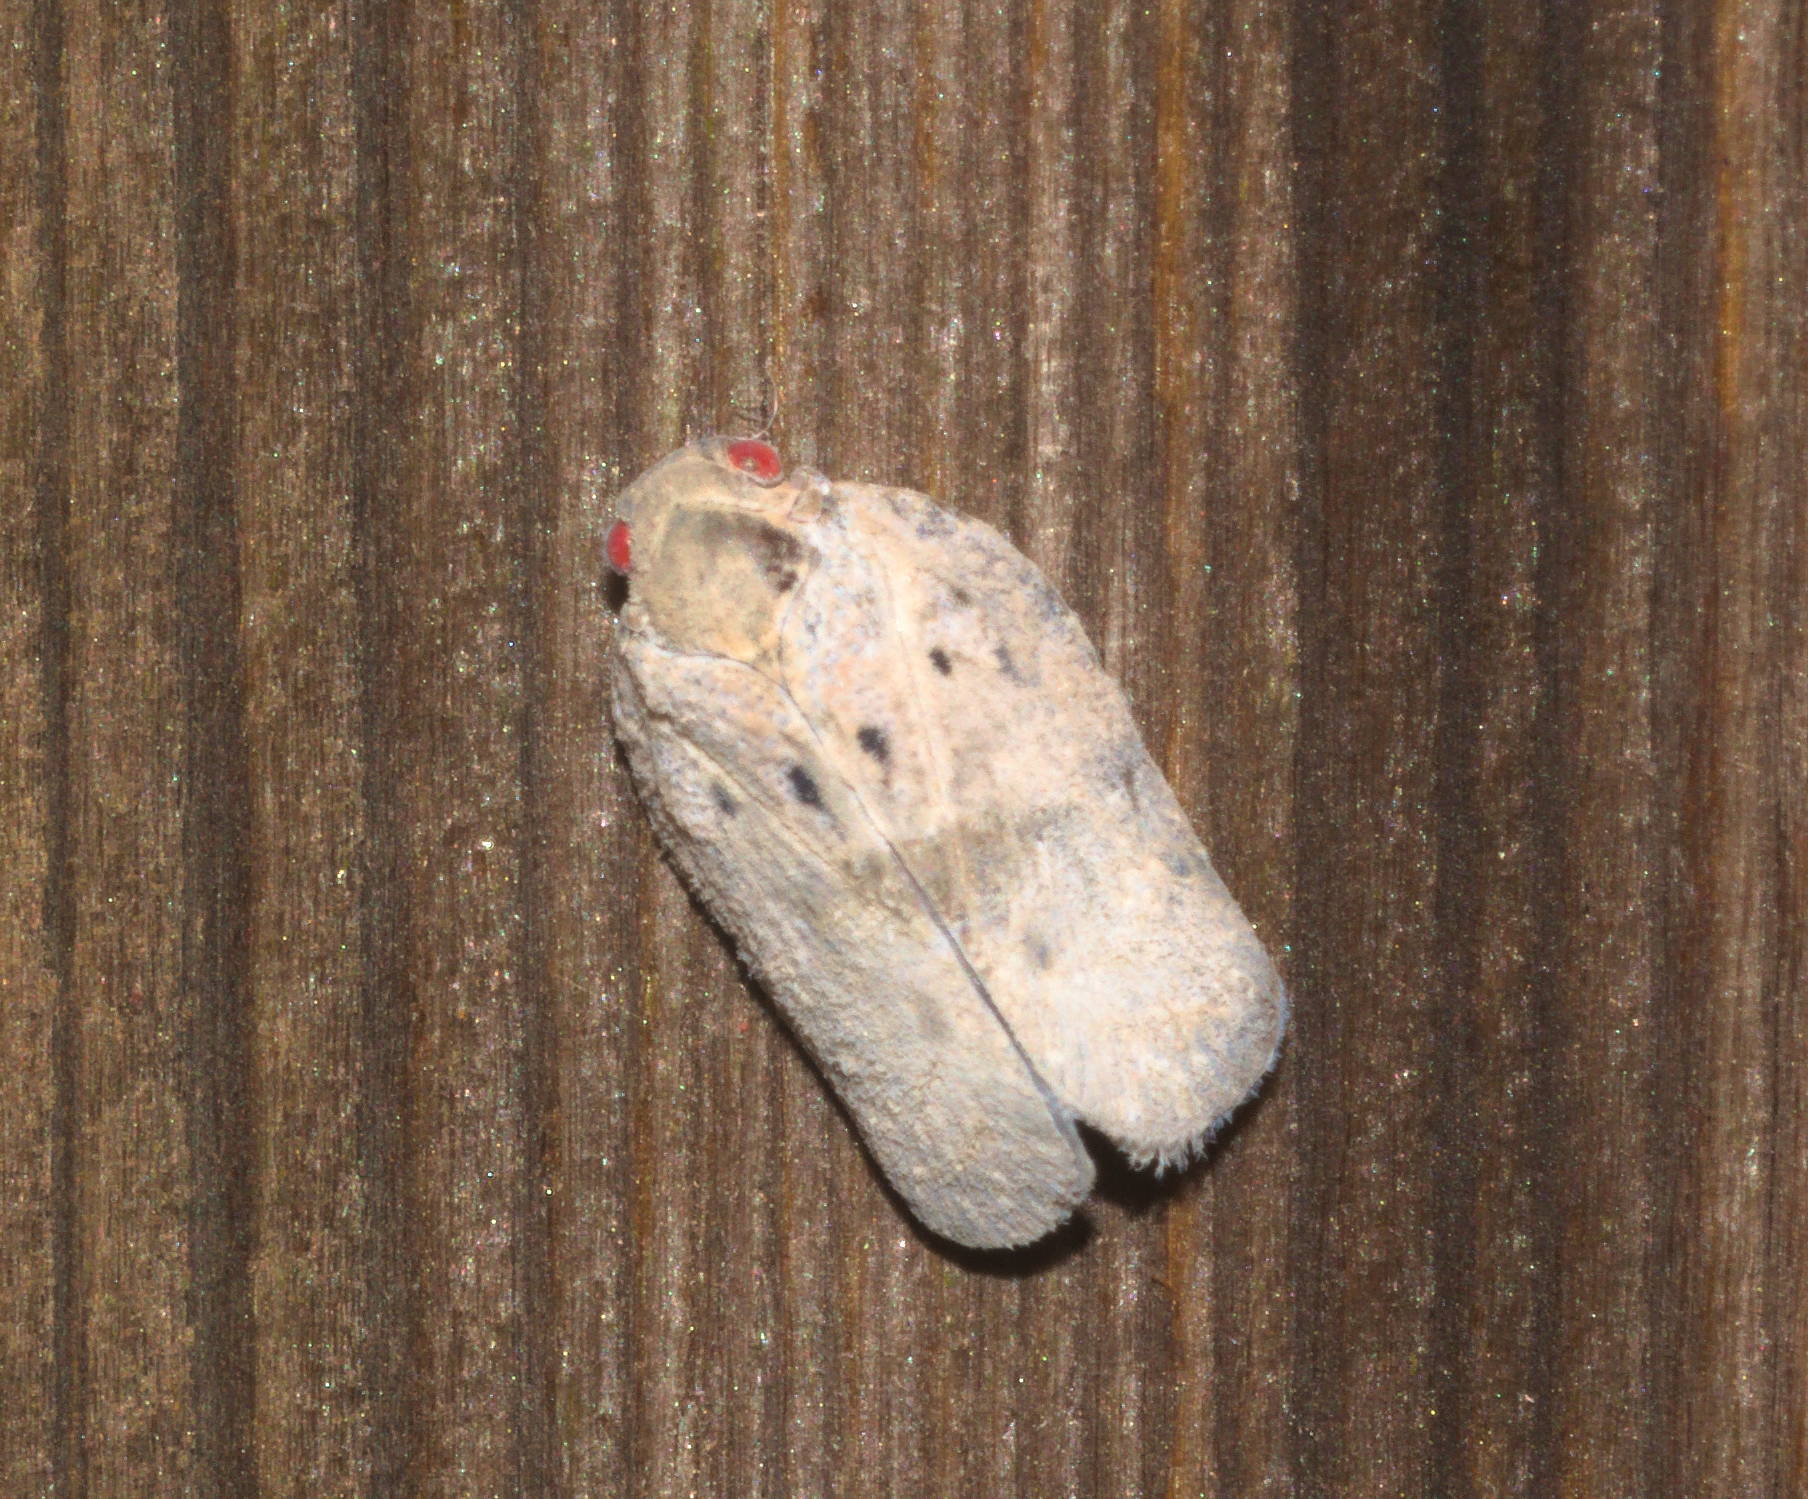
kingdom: Animalia
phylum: Arthropoda
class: Insecta
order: Hemiptera
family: Flatidae
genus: Melormenis
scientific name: Melormenis basalis
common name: Puerto rican planthopper
